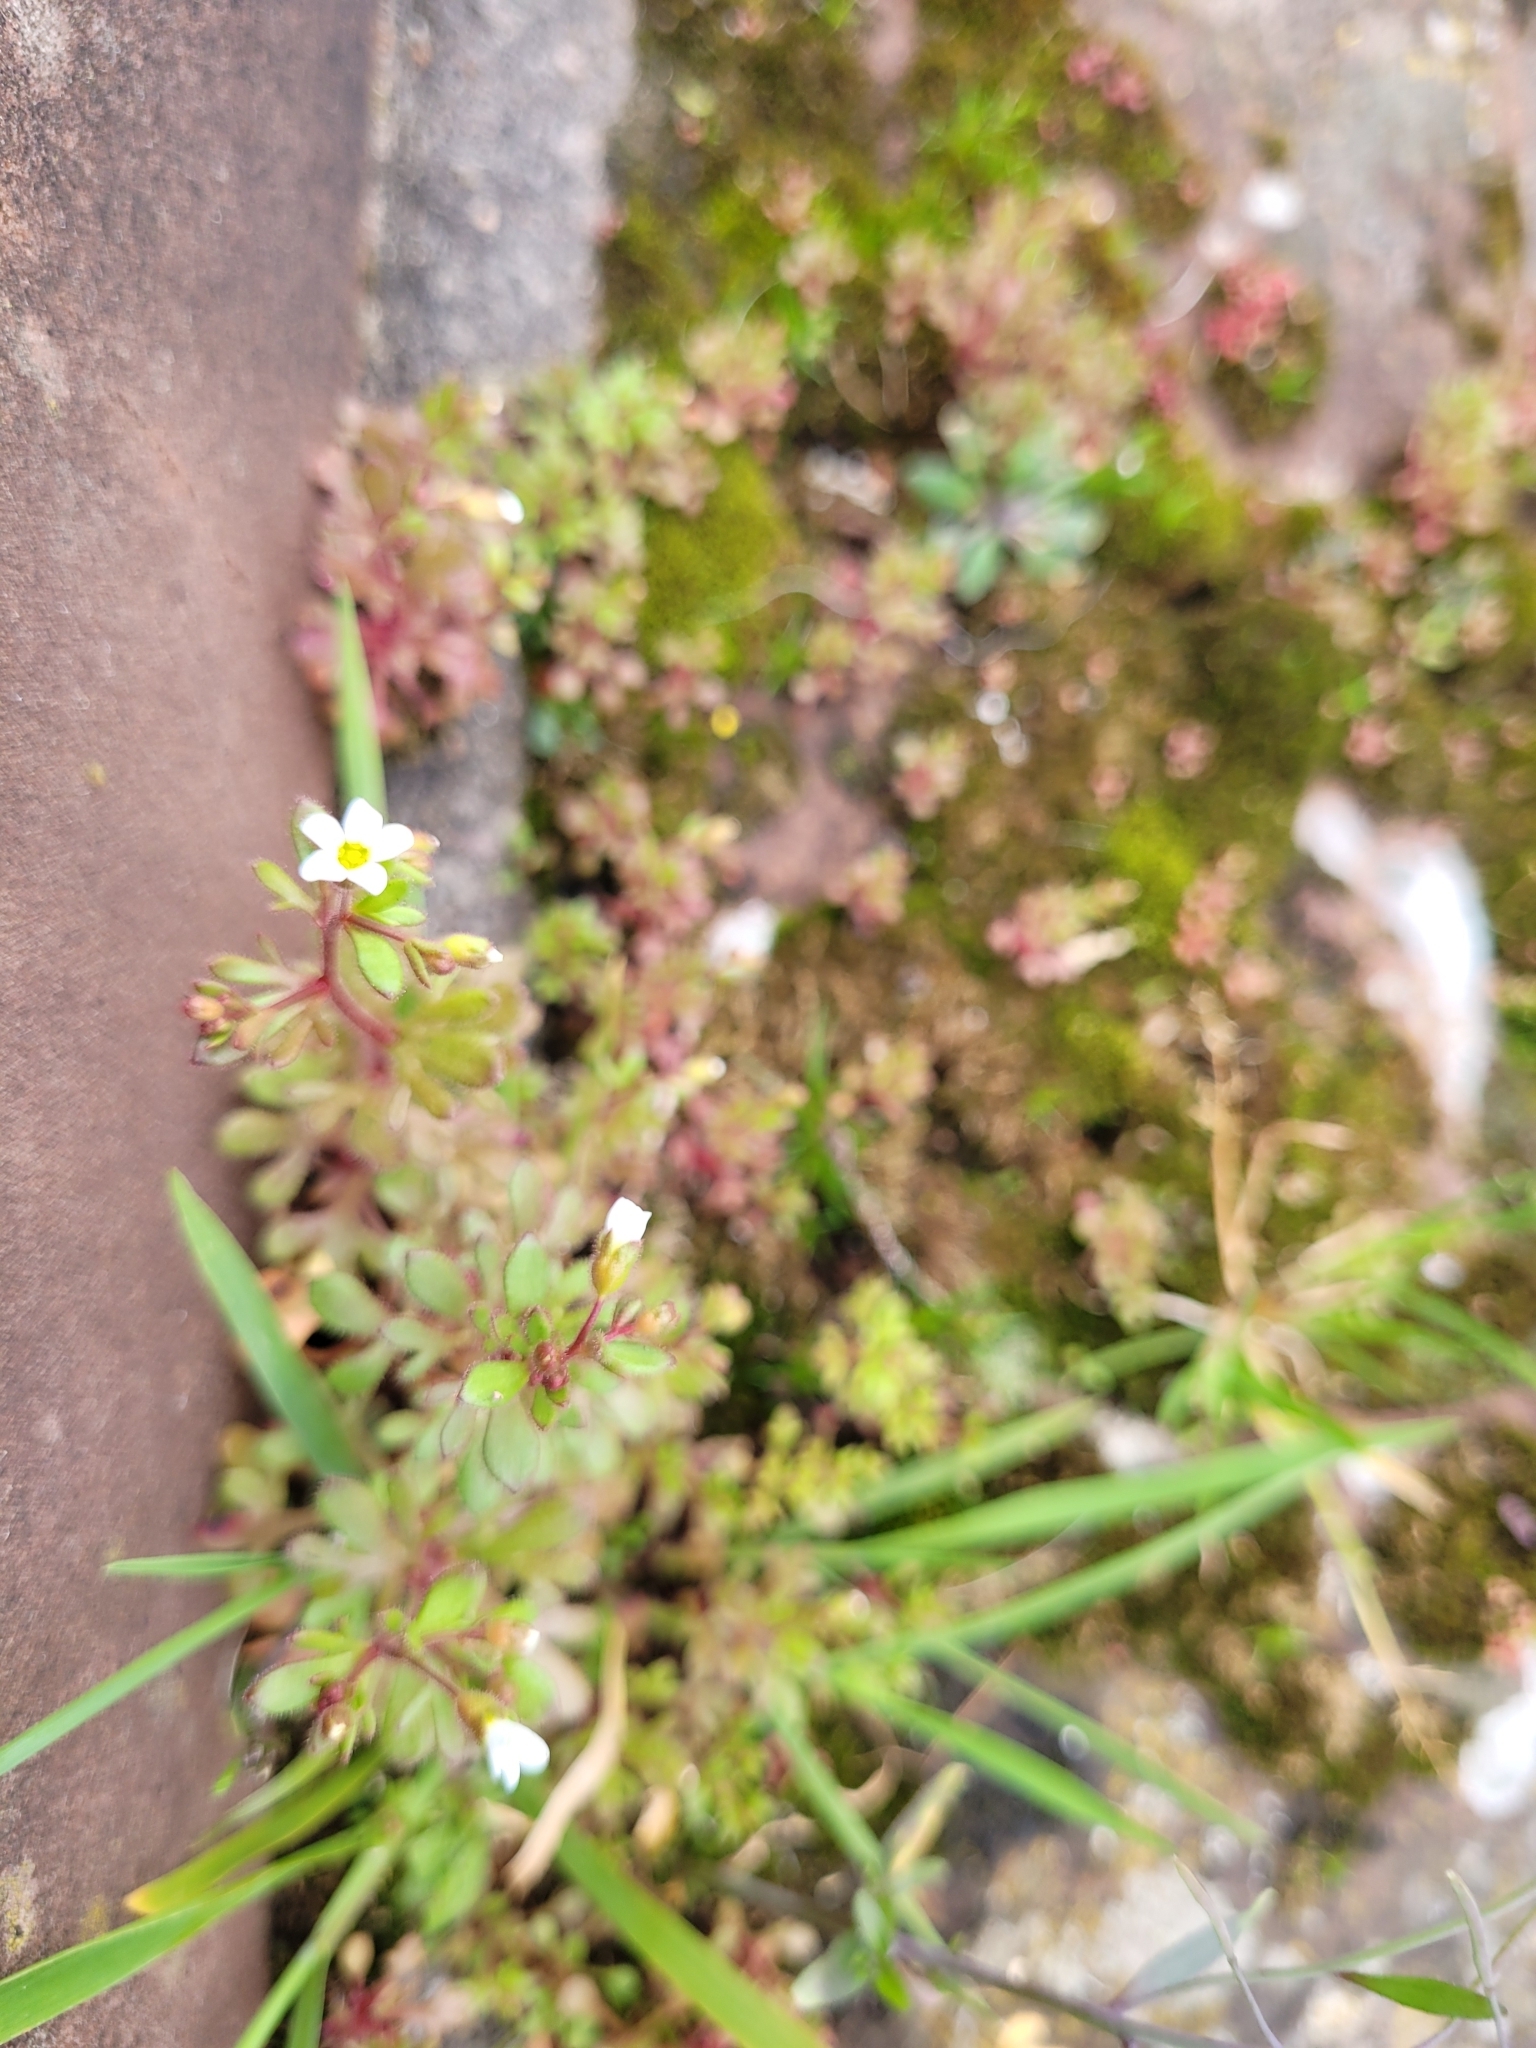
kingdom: Plantae
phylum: Tracheophyta
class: Magnoliopsida
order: Saxifragales
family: Saxifragaceae
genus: Saxifraga
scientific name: Saxifraga tridactylites
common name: Rue-leaved saxifrage
